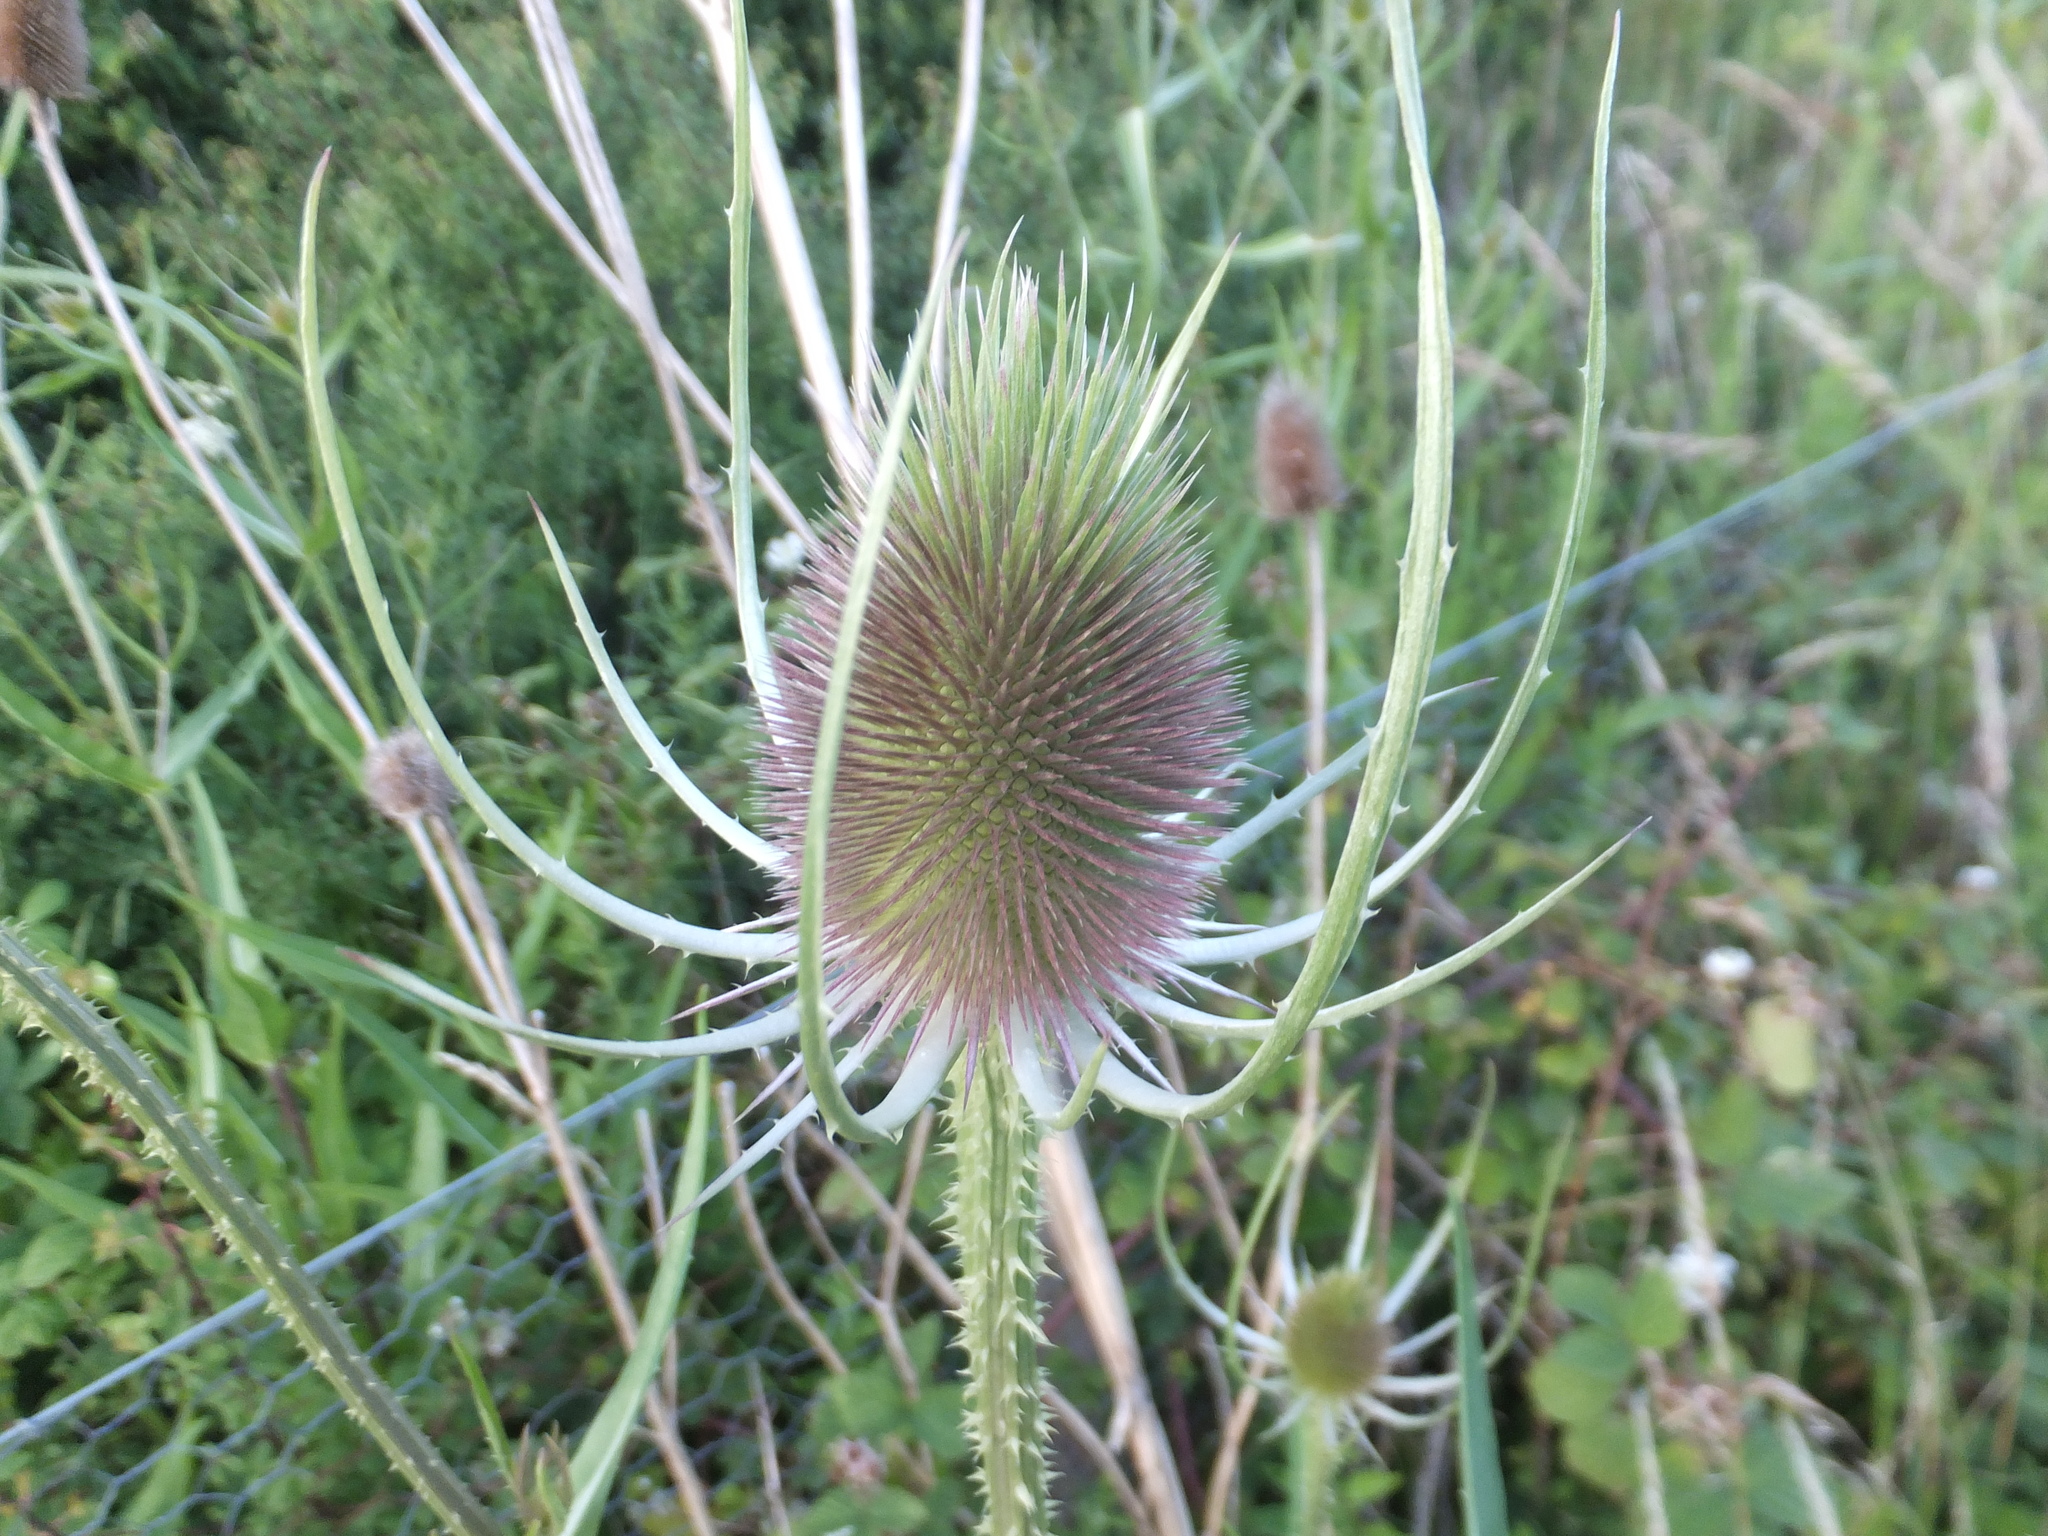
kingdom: Plantae
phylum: Tracheophyta
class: Magnoliopsida
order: Dipsacales
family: Caprifoliaceae
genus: Dipsacus
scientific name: Dipsacus fullonum
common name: Teasel
